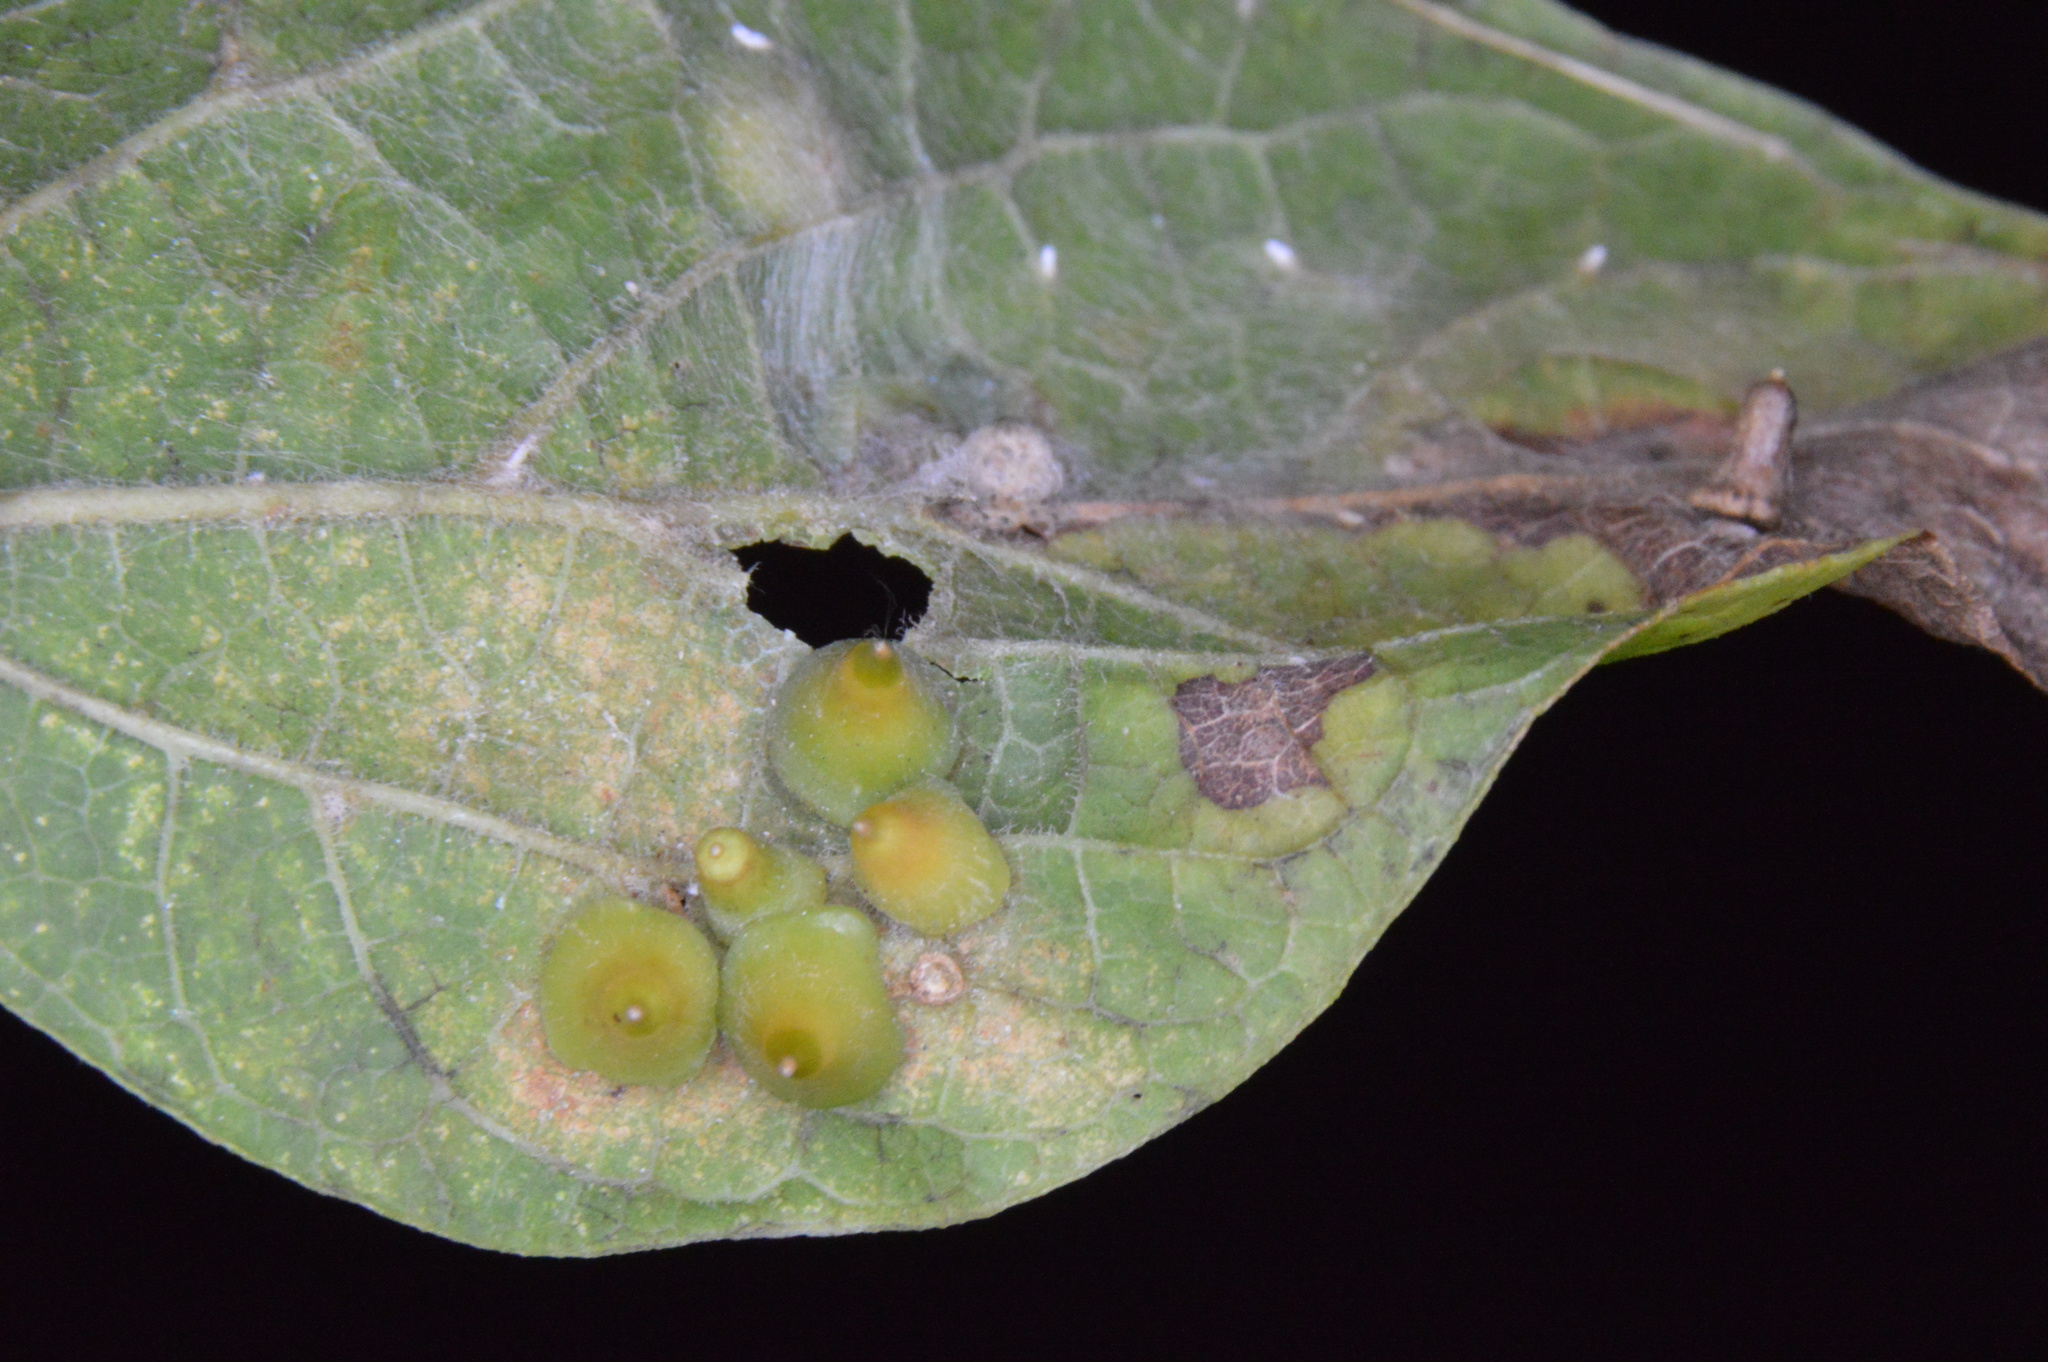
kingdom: Animalia
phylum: Arthropoda
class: Insecta
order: Diptera
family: Cecidomyiidae
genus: Celticecis
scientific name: Celticecis spiniformis
